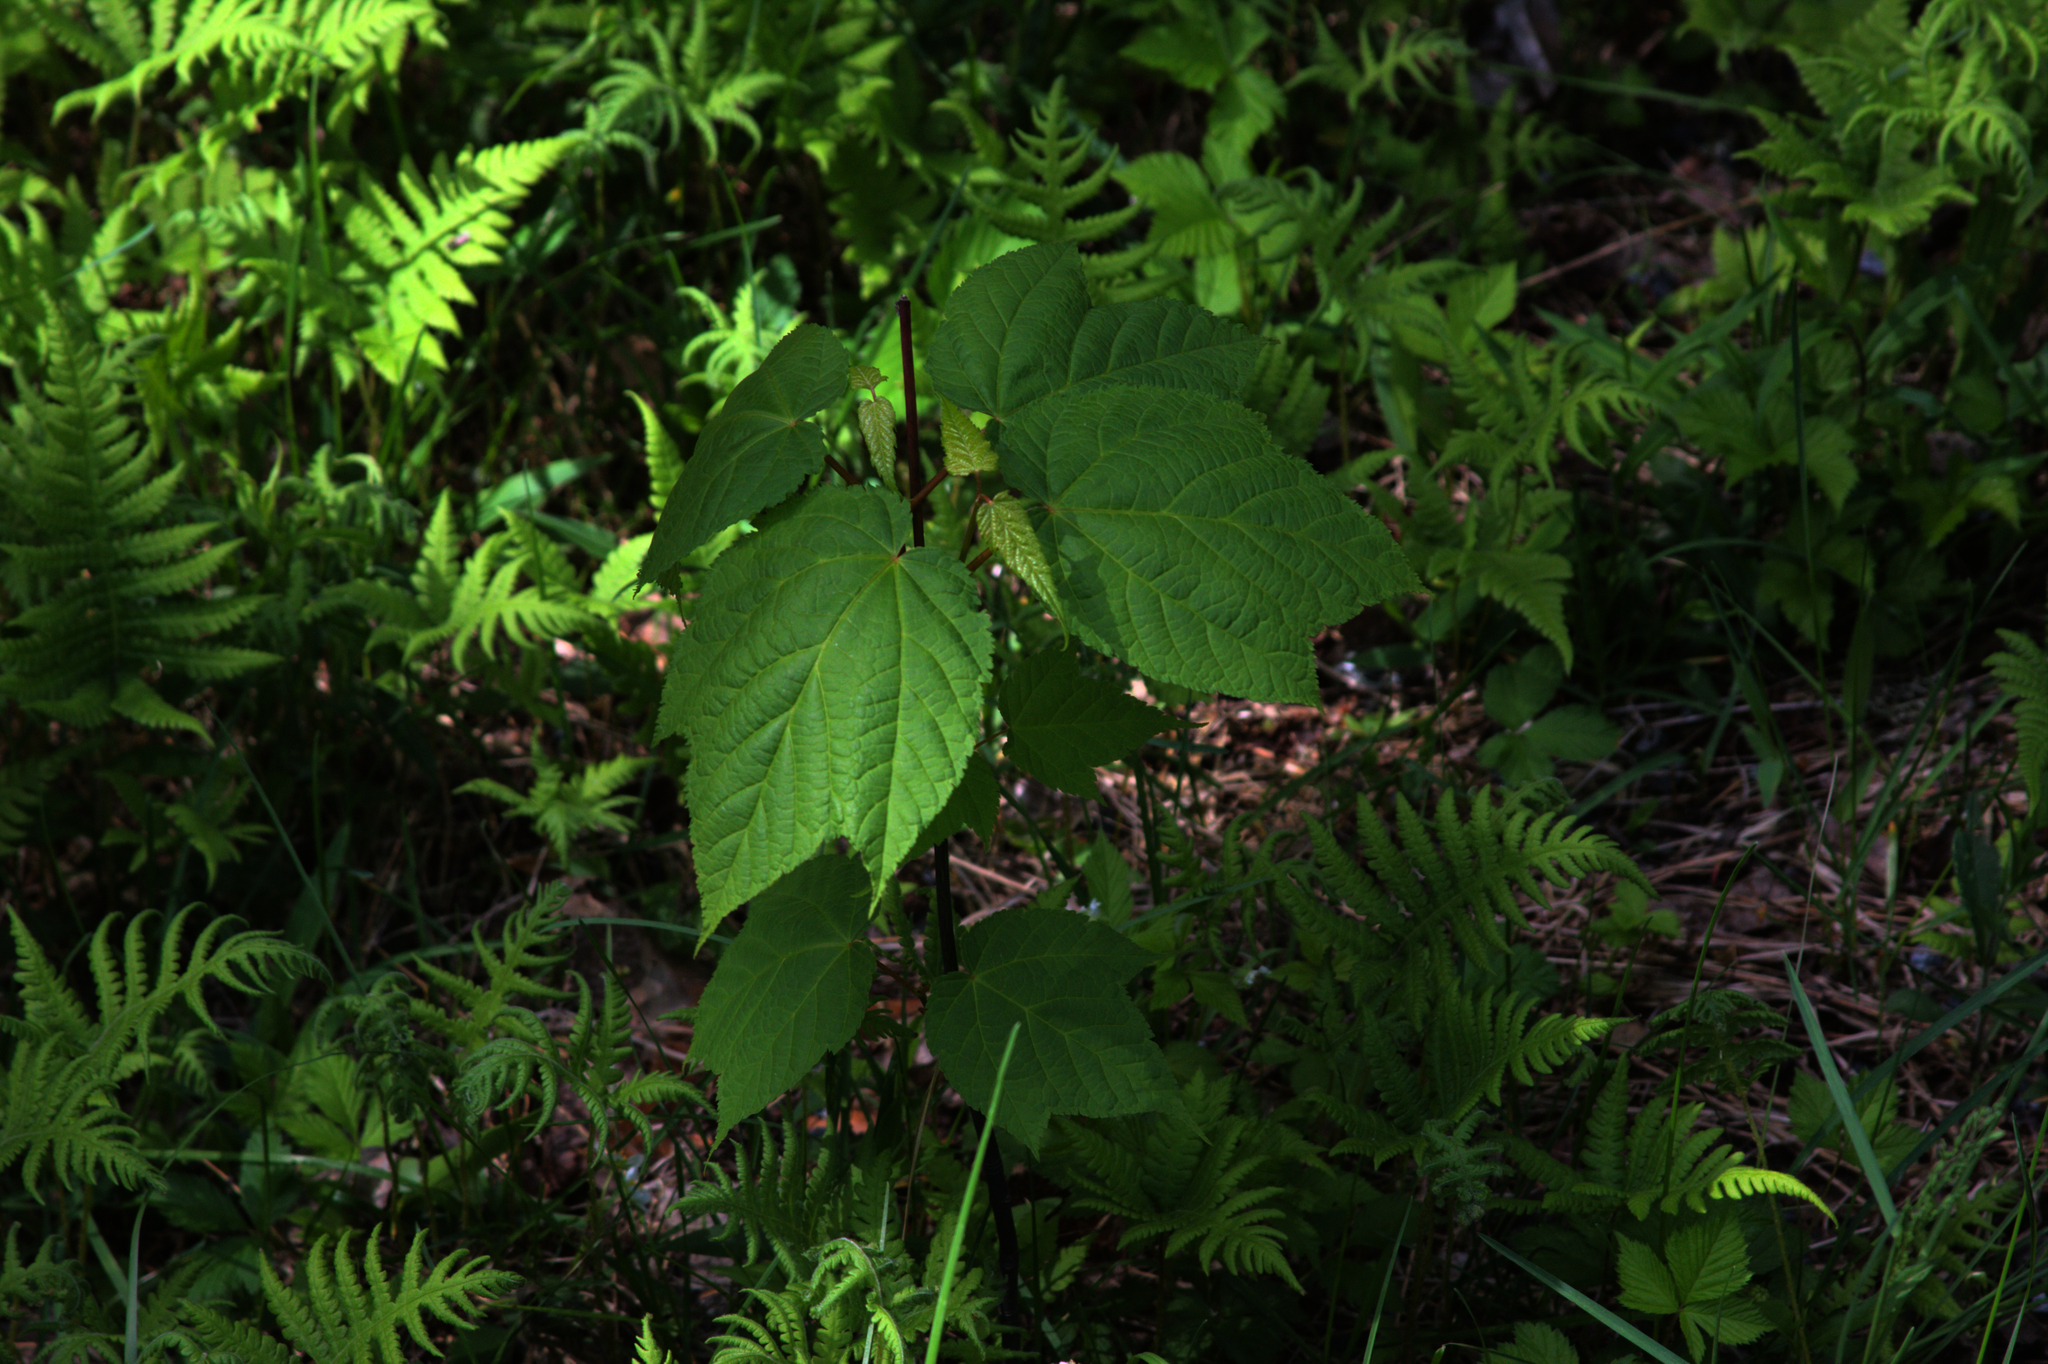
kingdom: Plantae
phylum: Tracheophyta
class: Magnoliopsida
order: Sapindales
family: Sapindaceae
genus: Acer
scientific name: Acer pensylvanicum
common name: Moosewood
